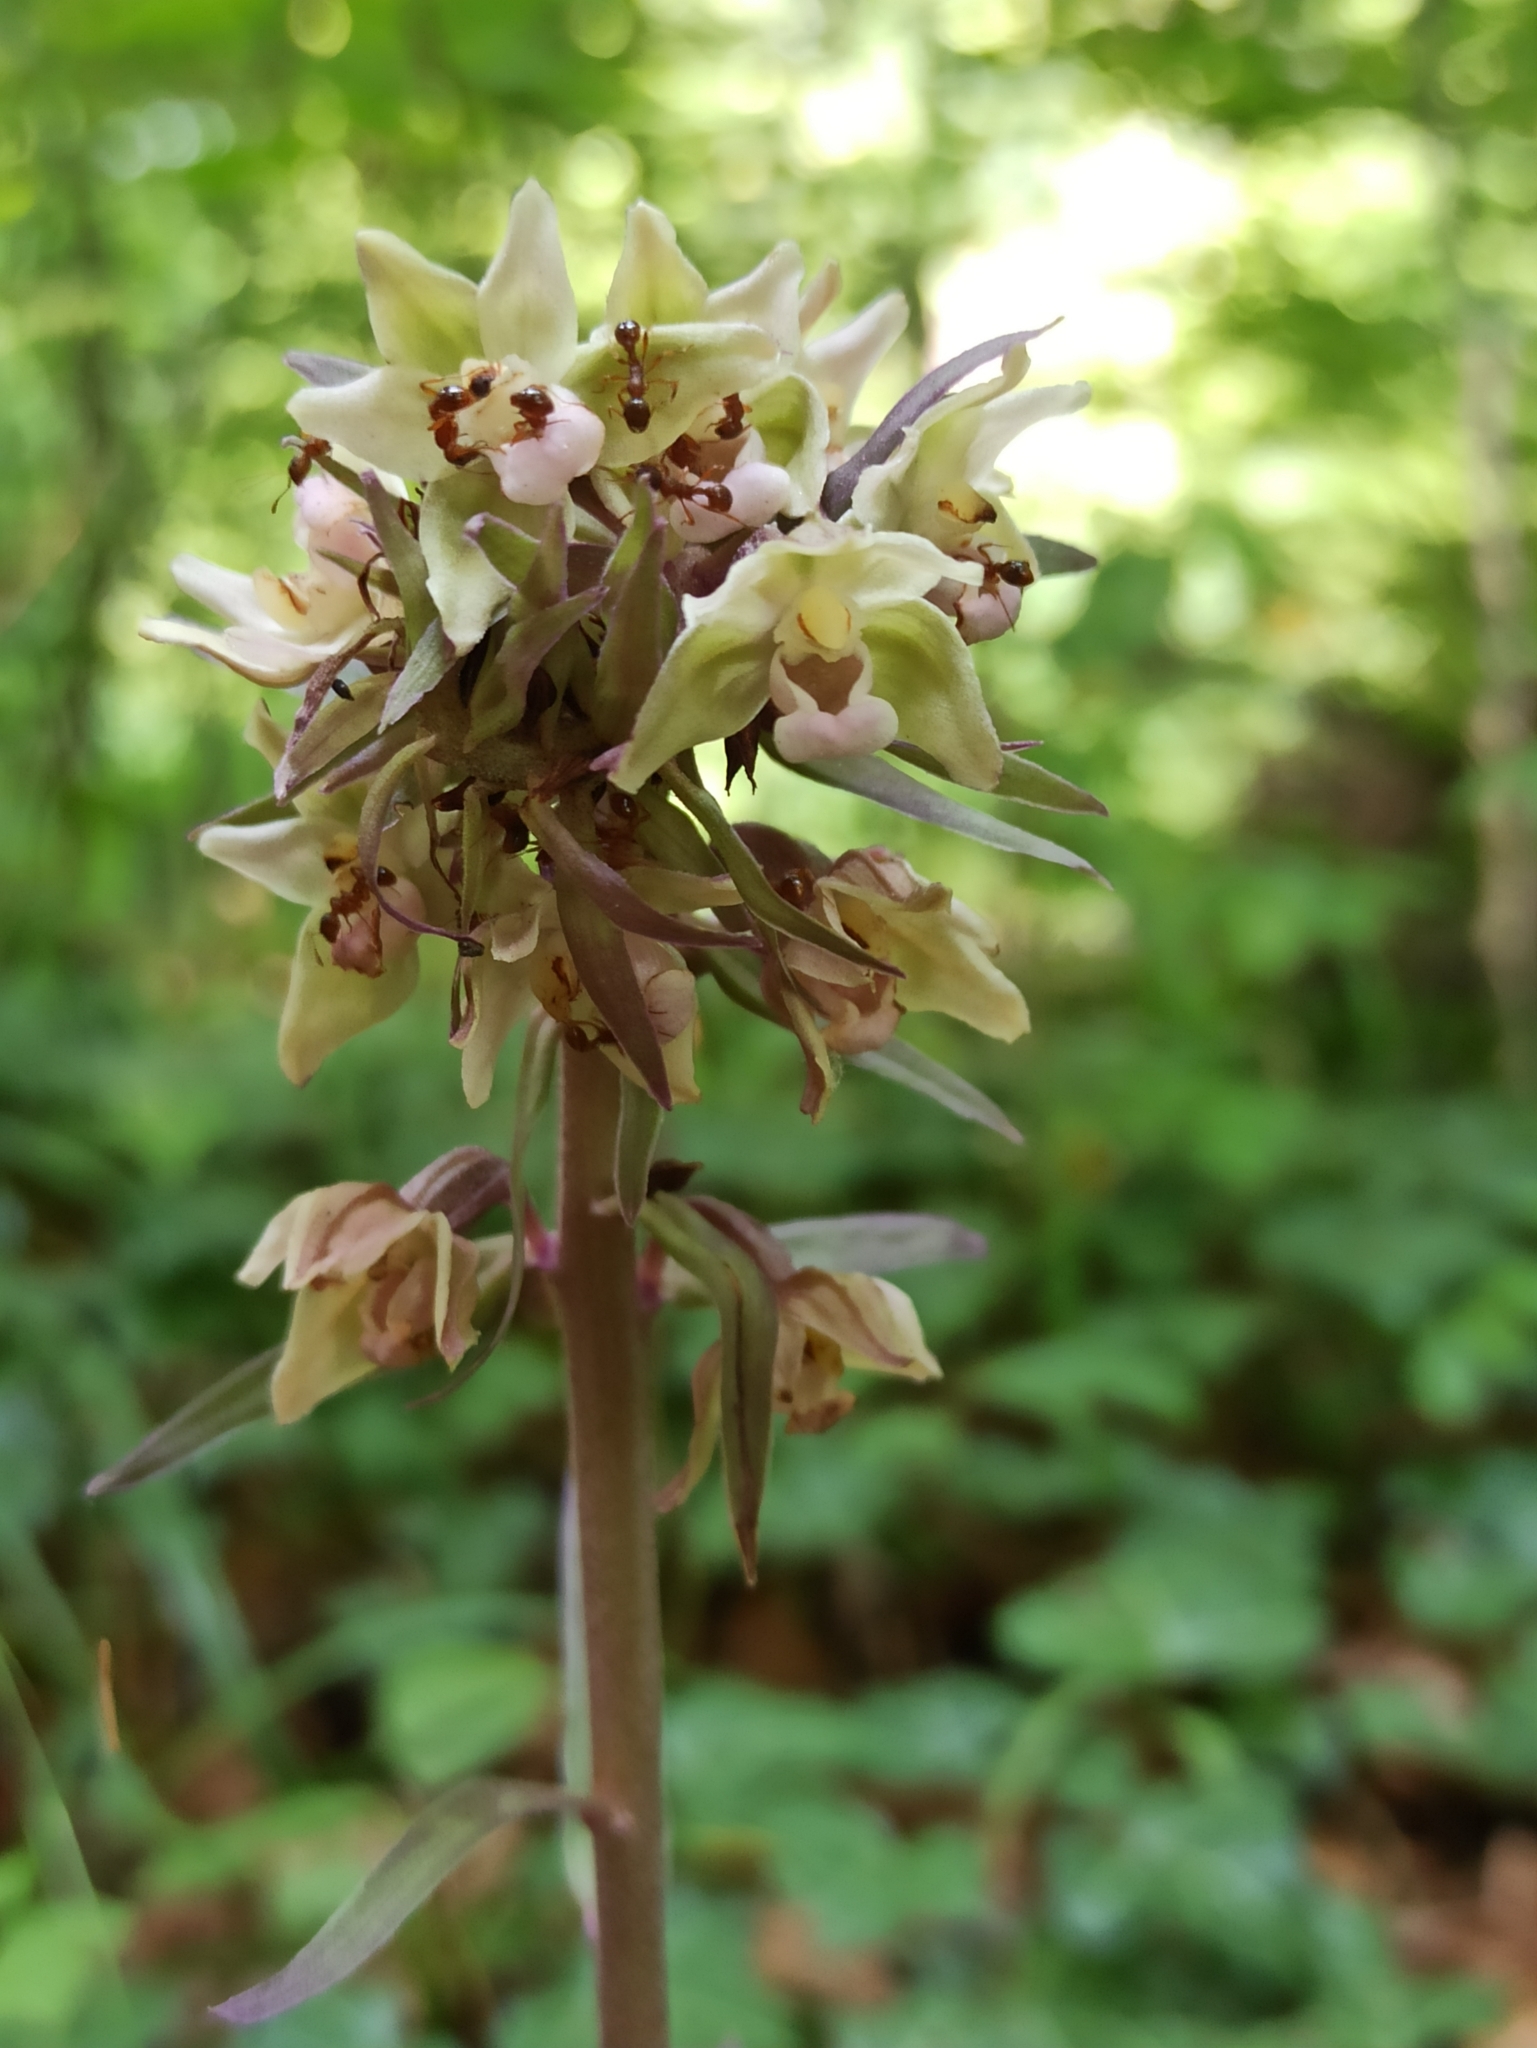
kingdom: Plantae
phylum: Tracheophyta
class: Liliopsida
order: Asparagales
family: Orchidaceae
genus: Epipactis
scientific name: Epipactis purpurata
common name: Violet helleborine
